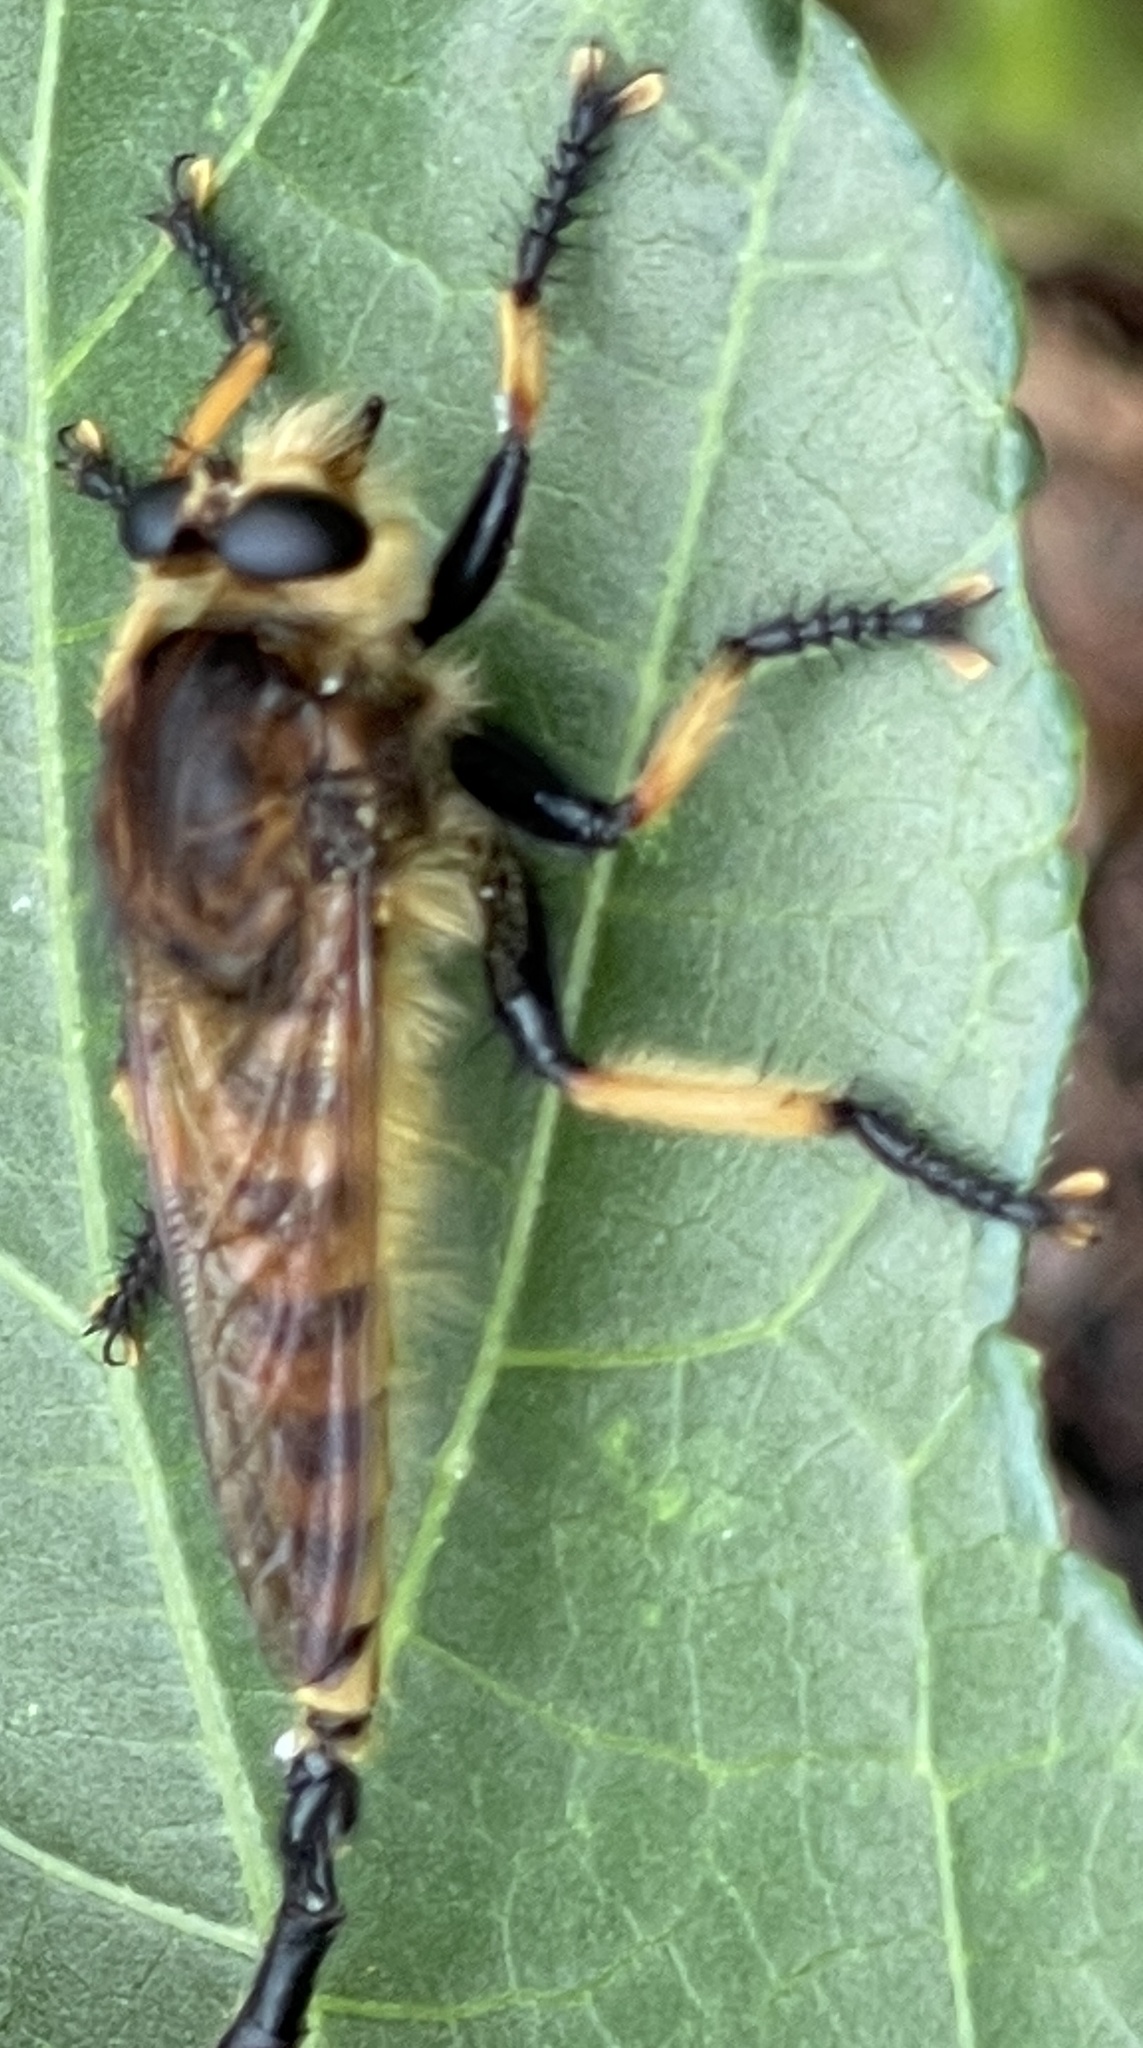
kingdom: Animalia
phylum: Arthropoda
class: Insecta
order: Diptera
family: Asilidae
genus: Promachus
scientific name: Promachus rufipes
